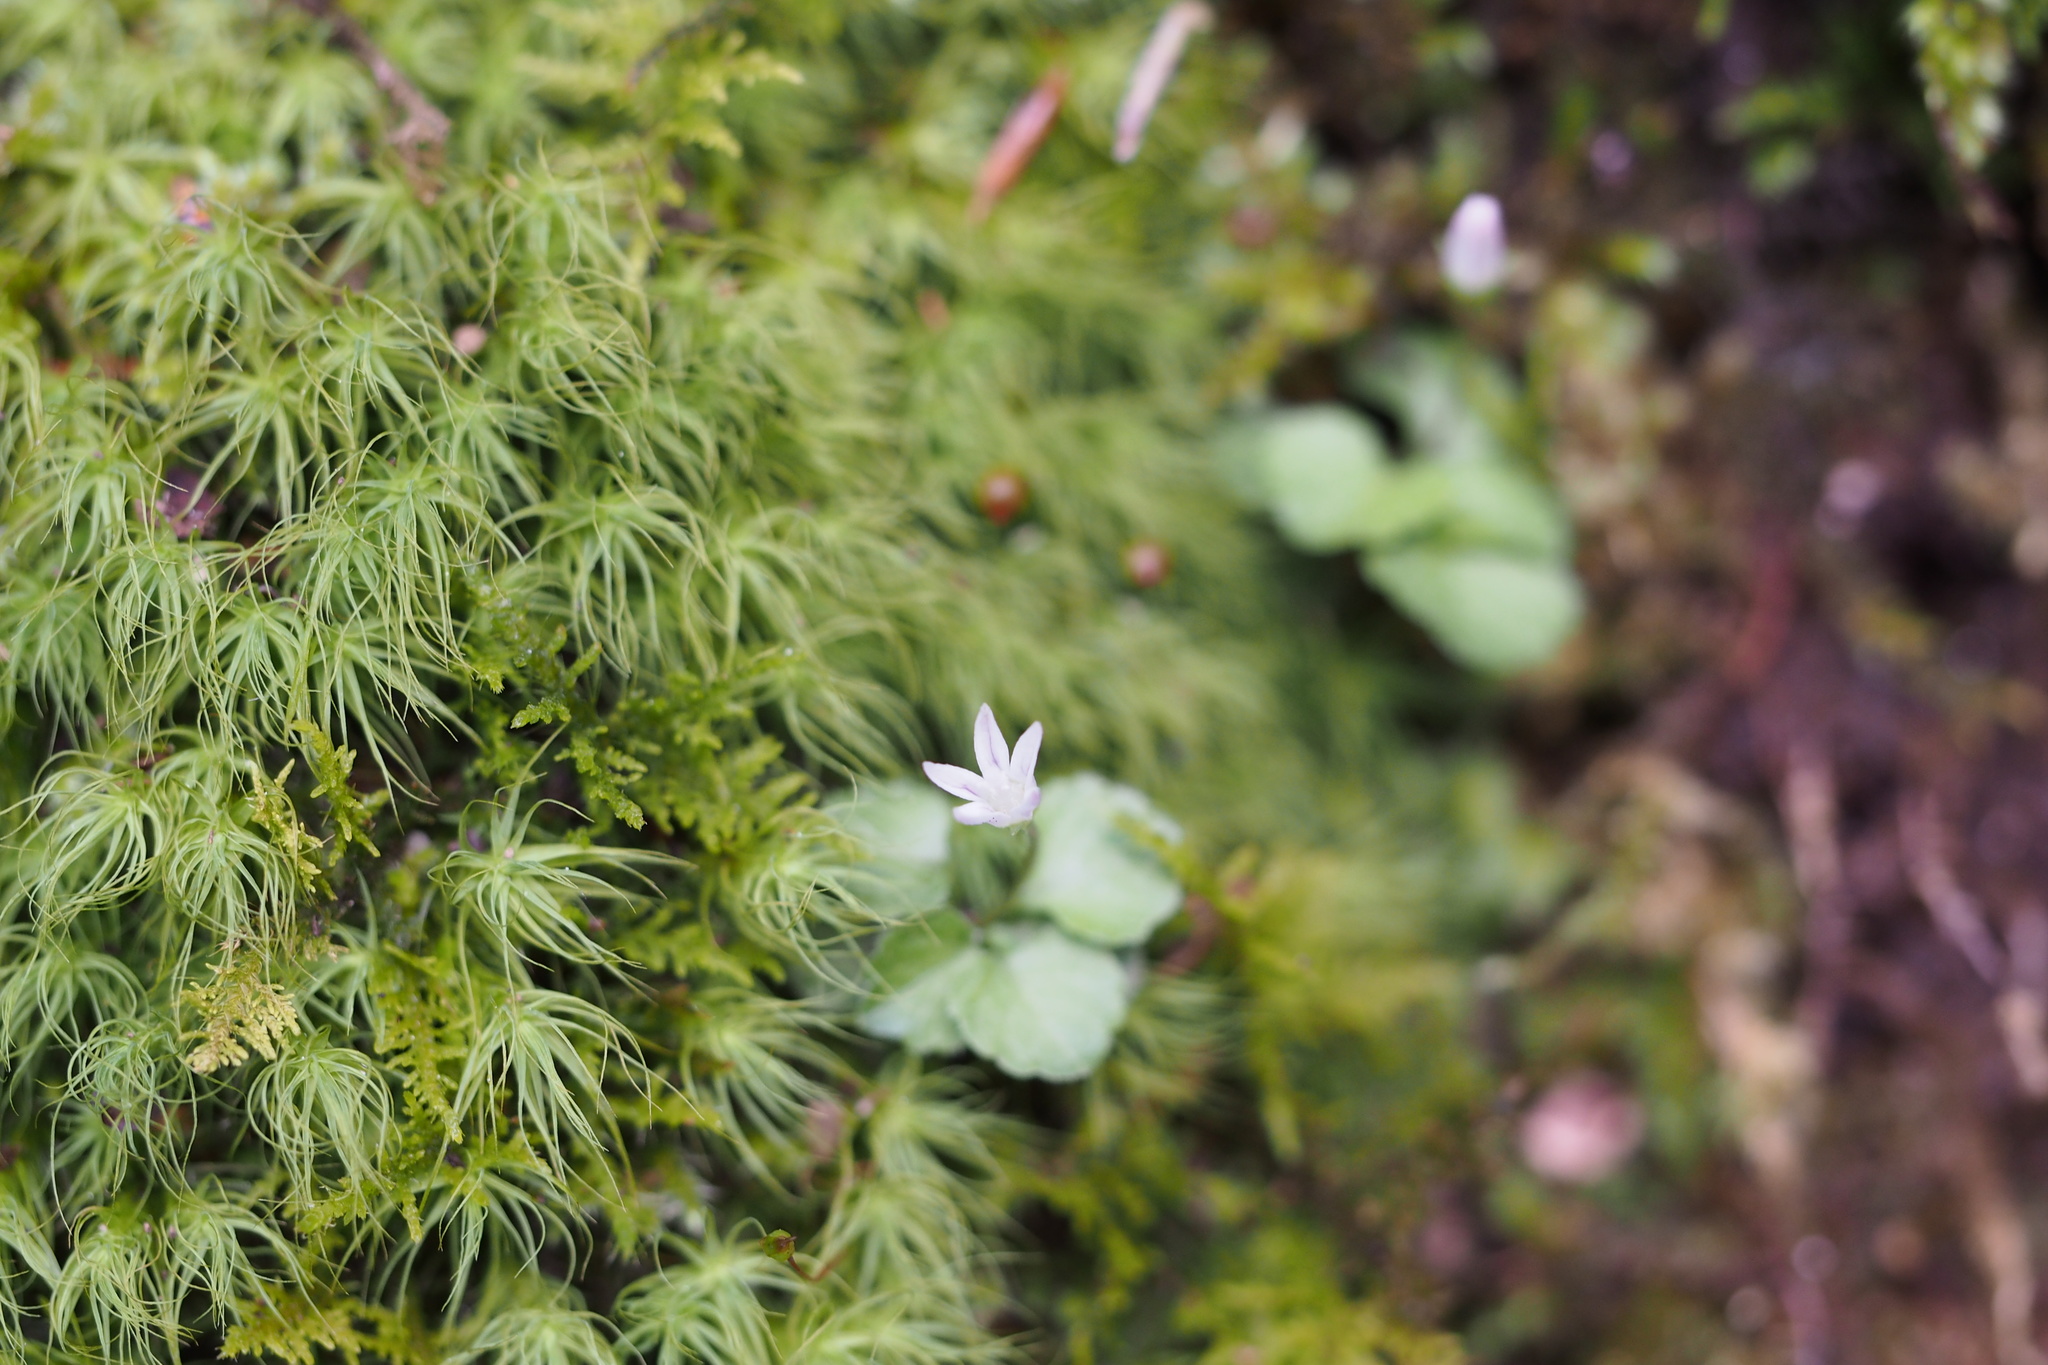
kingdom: Plantae
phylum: Tracheophyta
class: Magnoliopsida
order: Asterales
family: Campanulaceae
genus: Peracarpa
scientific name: Peracarpa carnosa
